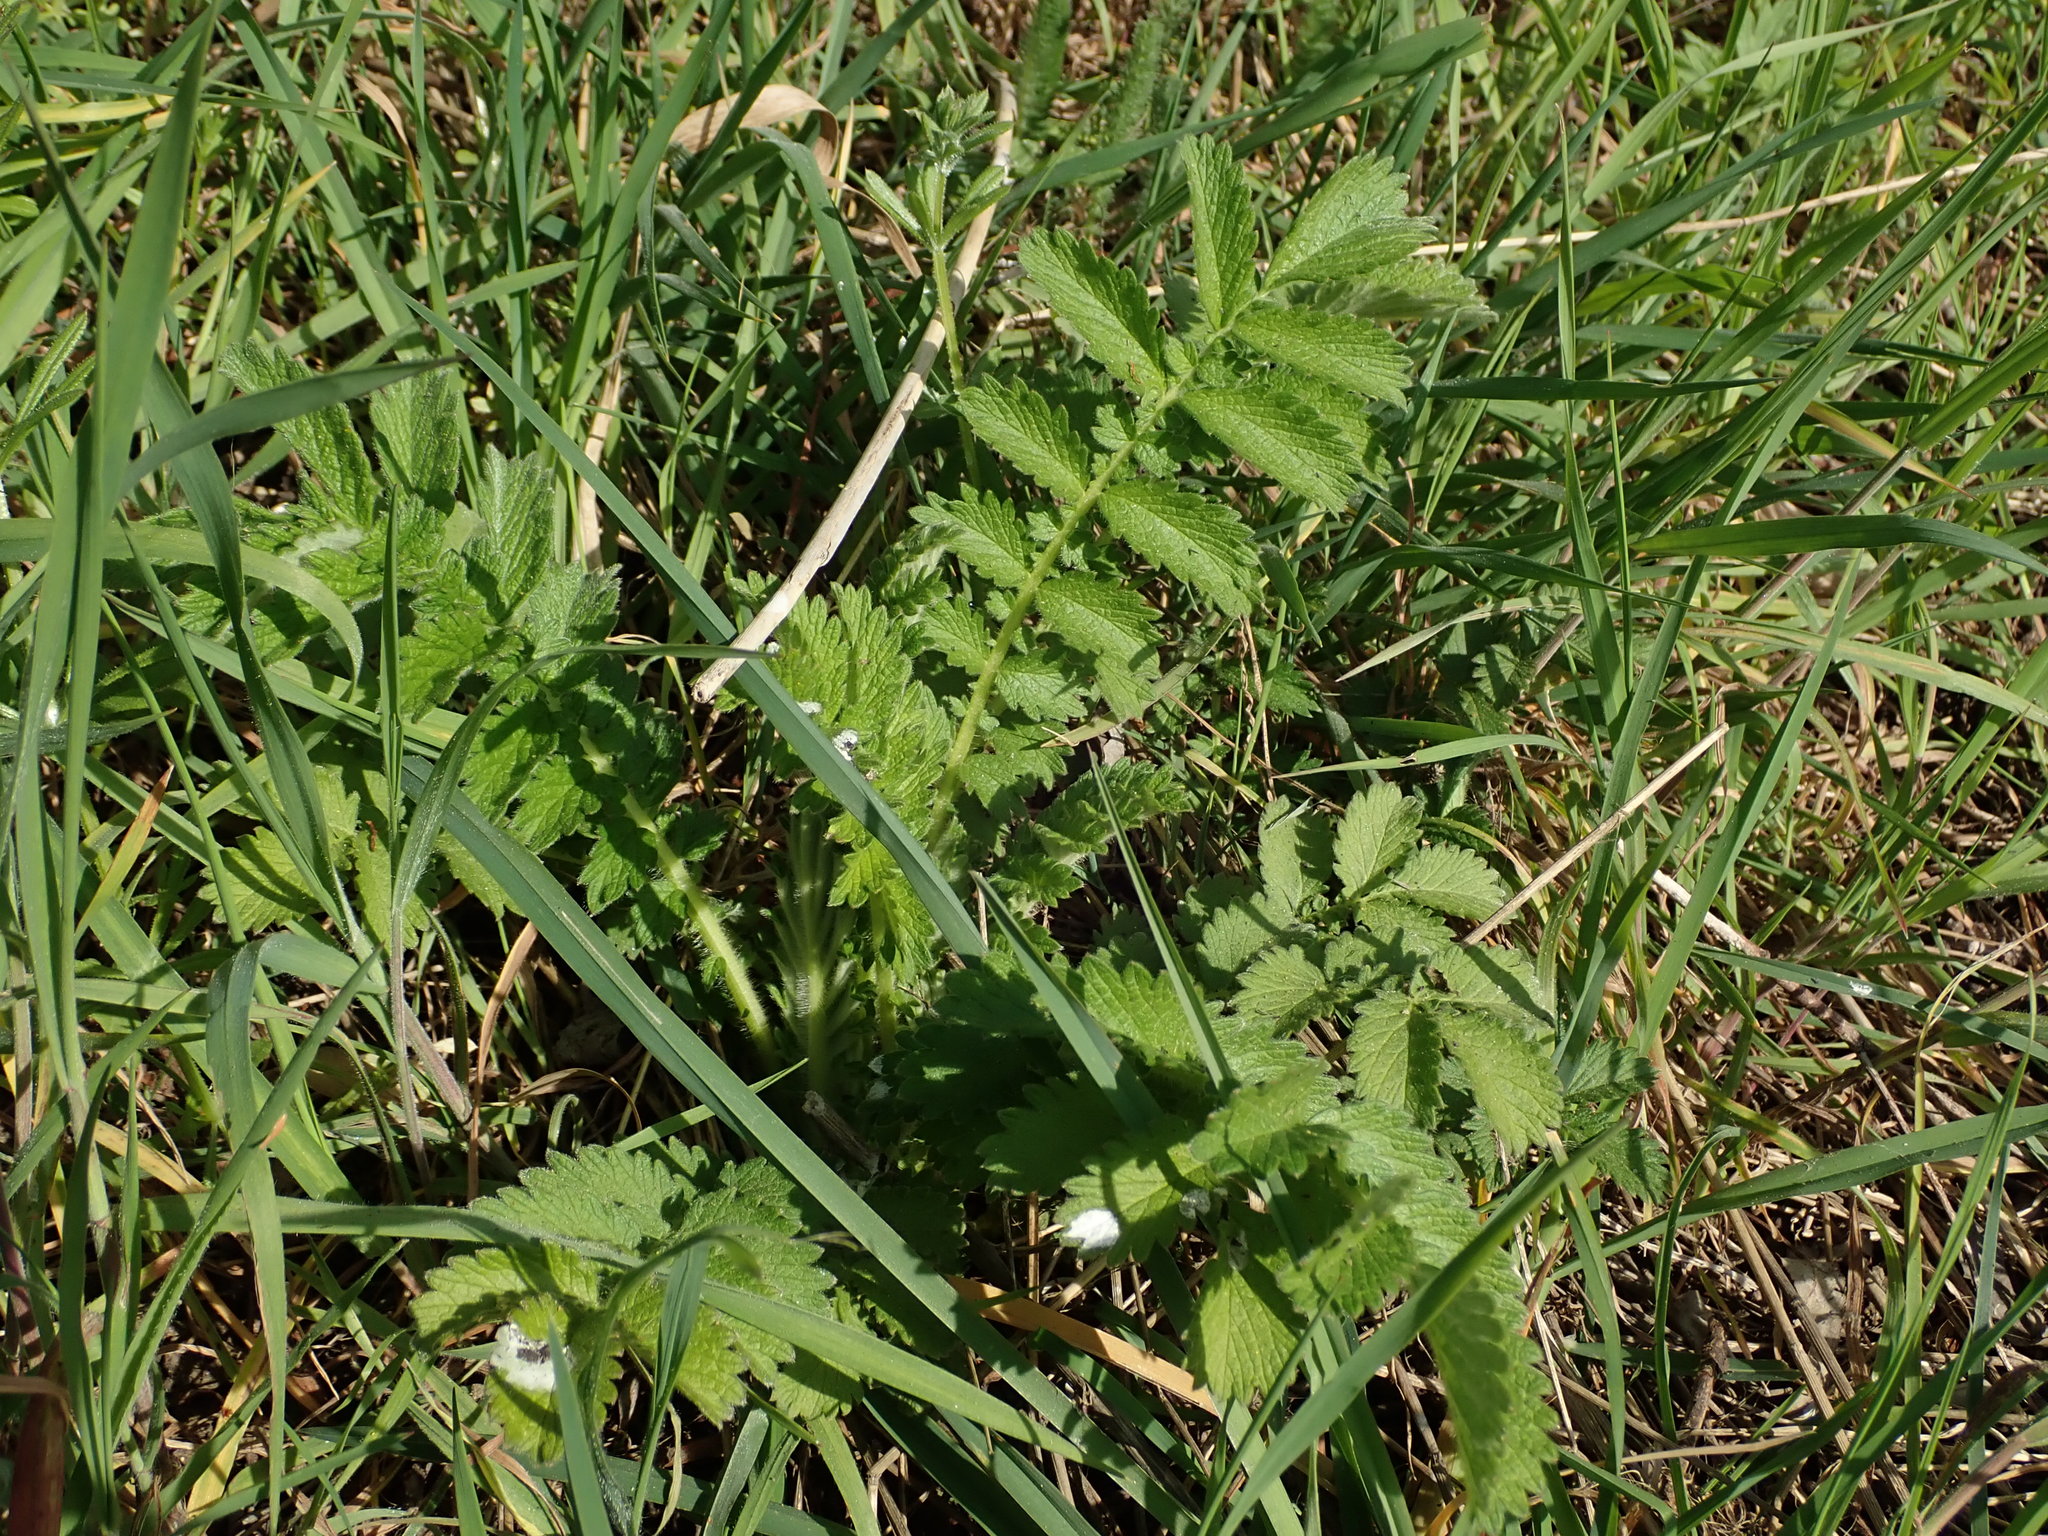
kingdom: Plantae
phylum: Tracheophyta
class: Magnoliopsida
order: Rosales
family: Rosaceae
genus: Agrimonia
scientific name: Agrimonia eupatoria
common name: Agrimony
